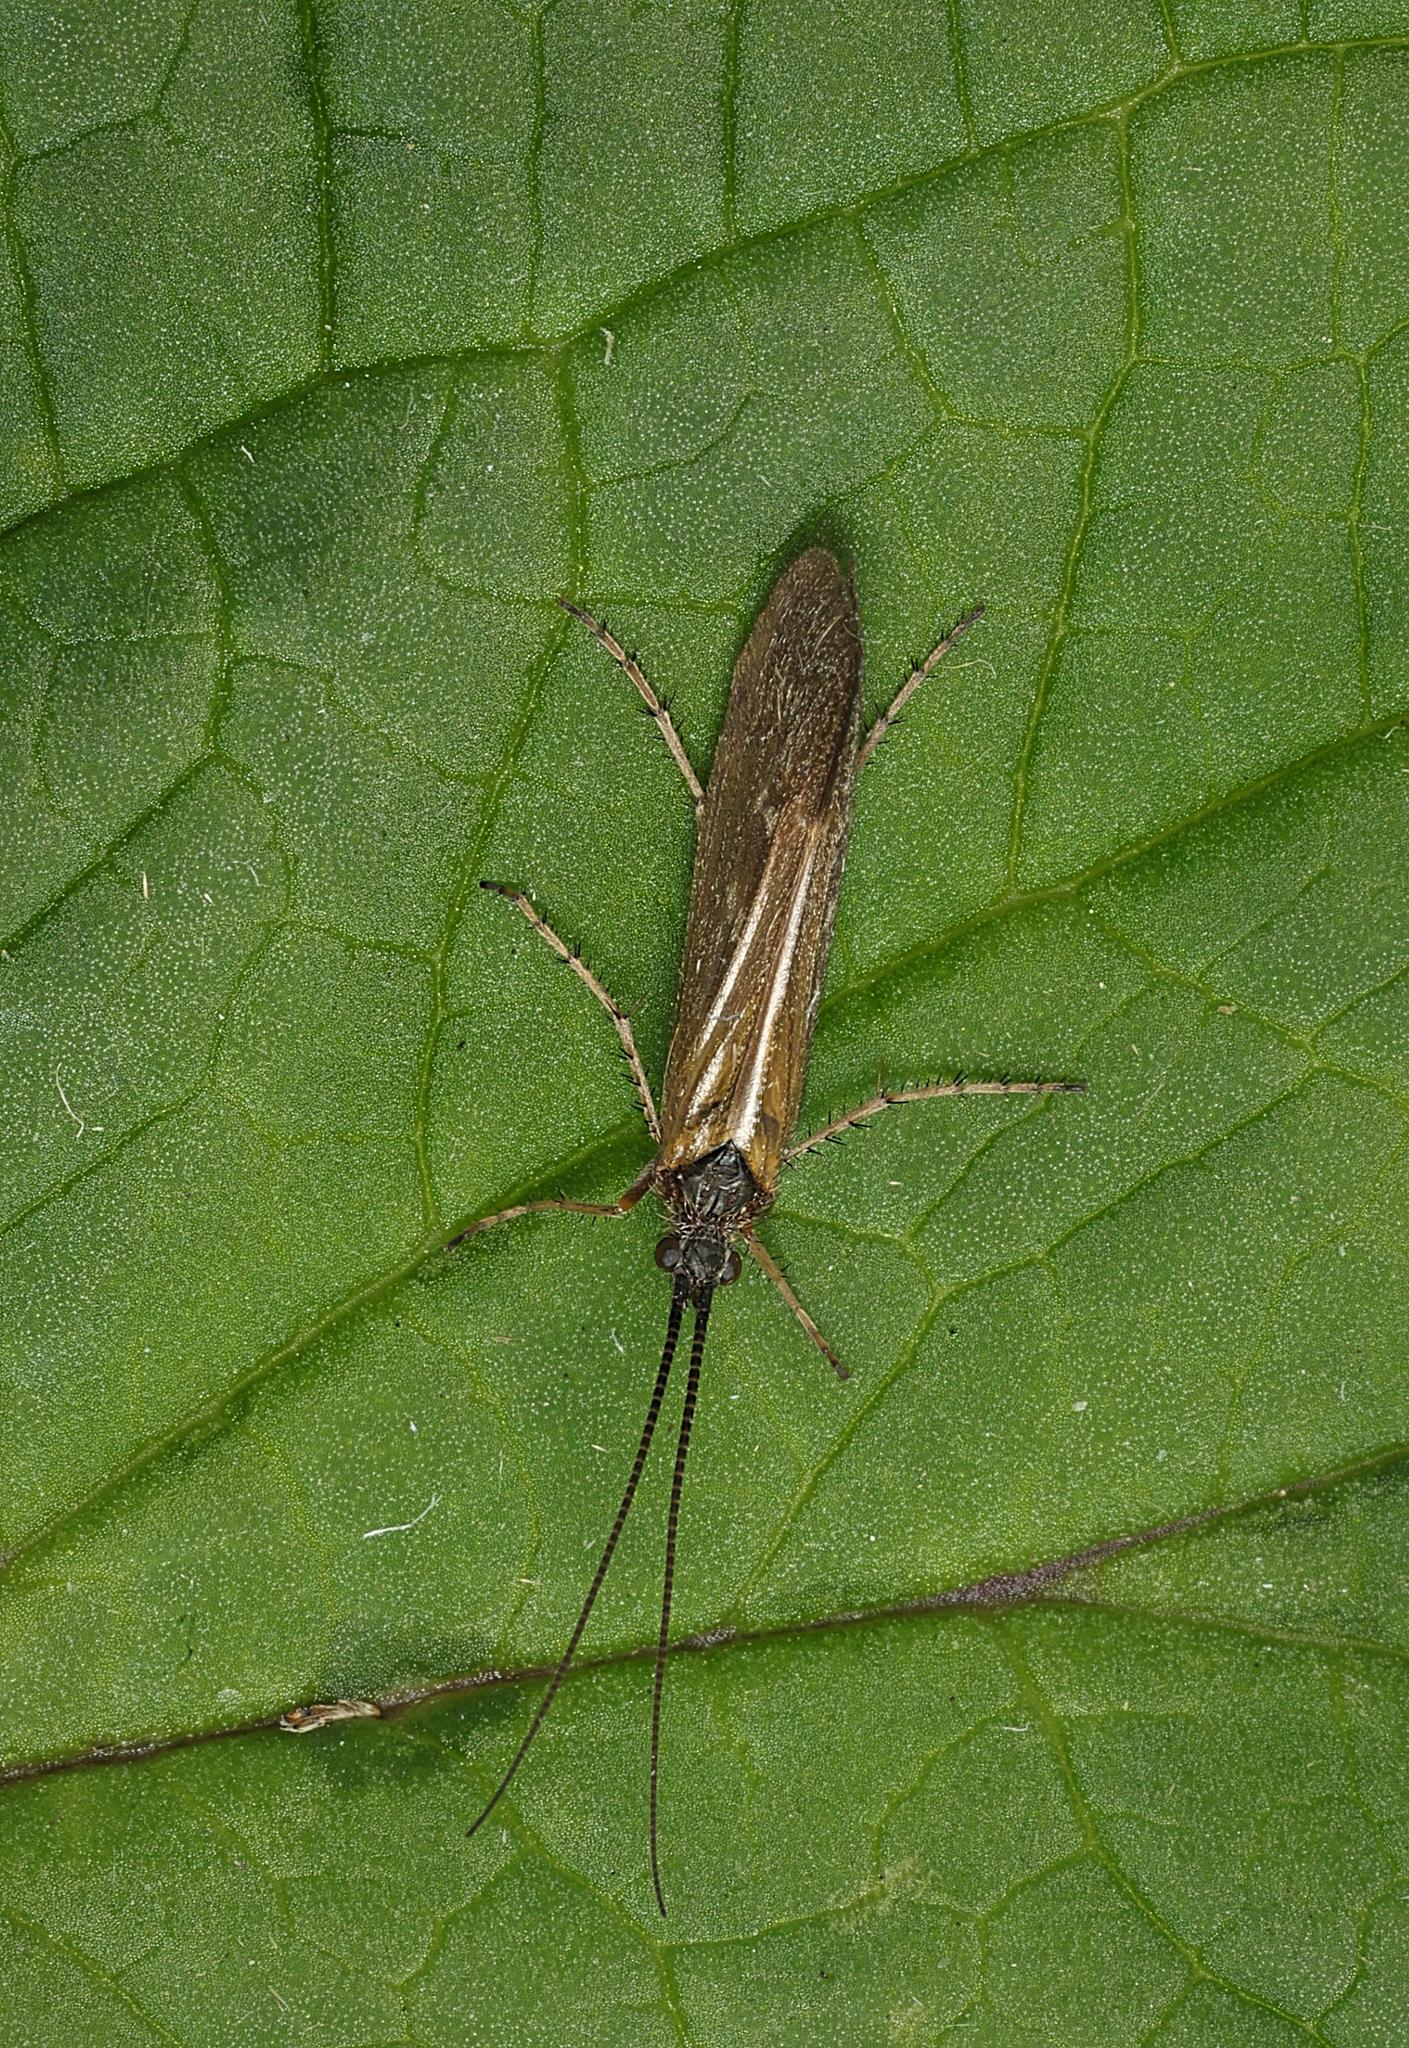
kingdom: Animalia
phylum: Arthropoda
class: Insecta
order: Trichoptera
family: Limnephilidae
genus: Limnephilus
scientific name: Limnephilus auricula
